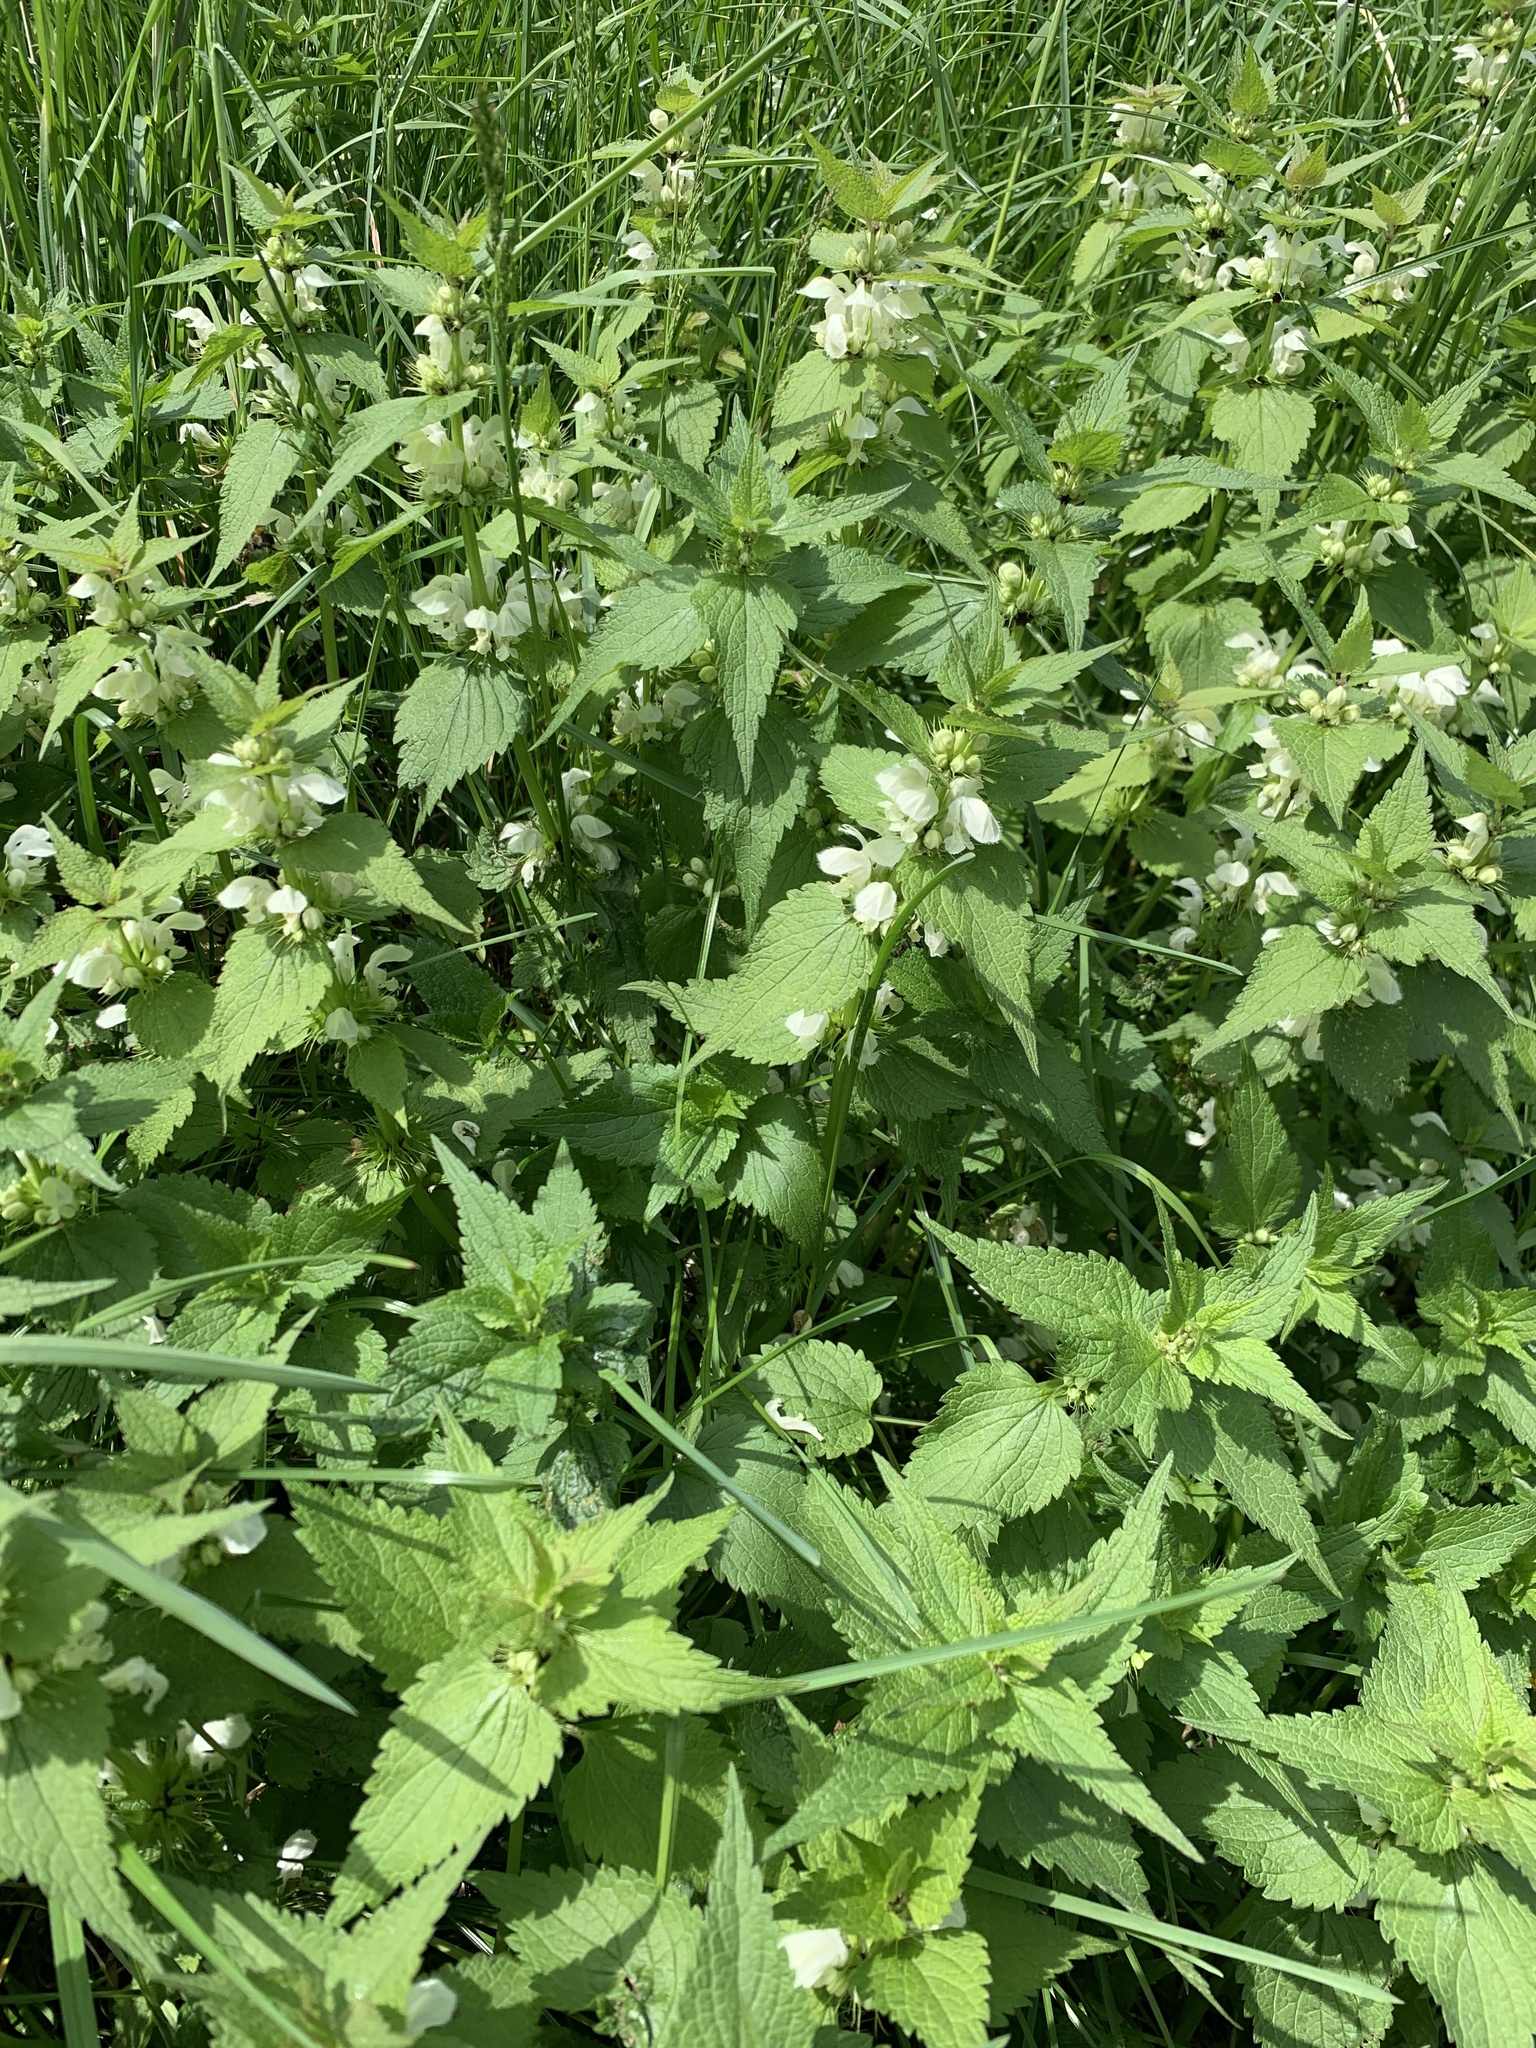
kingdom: Plantae
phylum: Tracheophyta
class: Magnoliopsida
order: Lamiales
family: Lamiaceae
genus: Lamium
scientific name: Lamium album
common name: White dead-nettle
